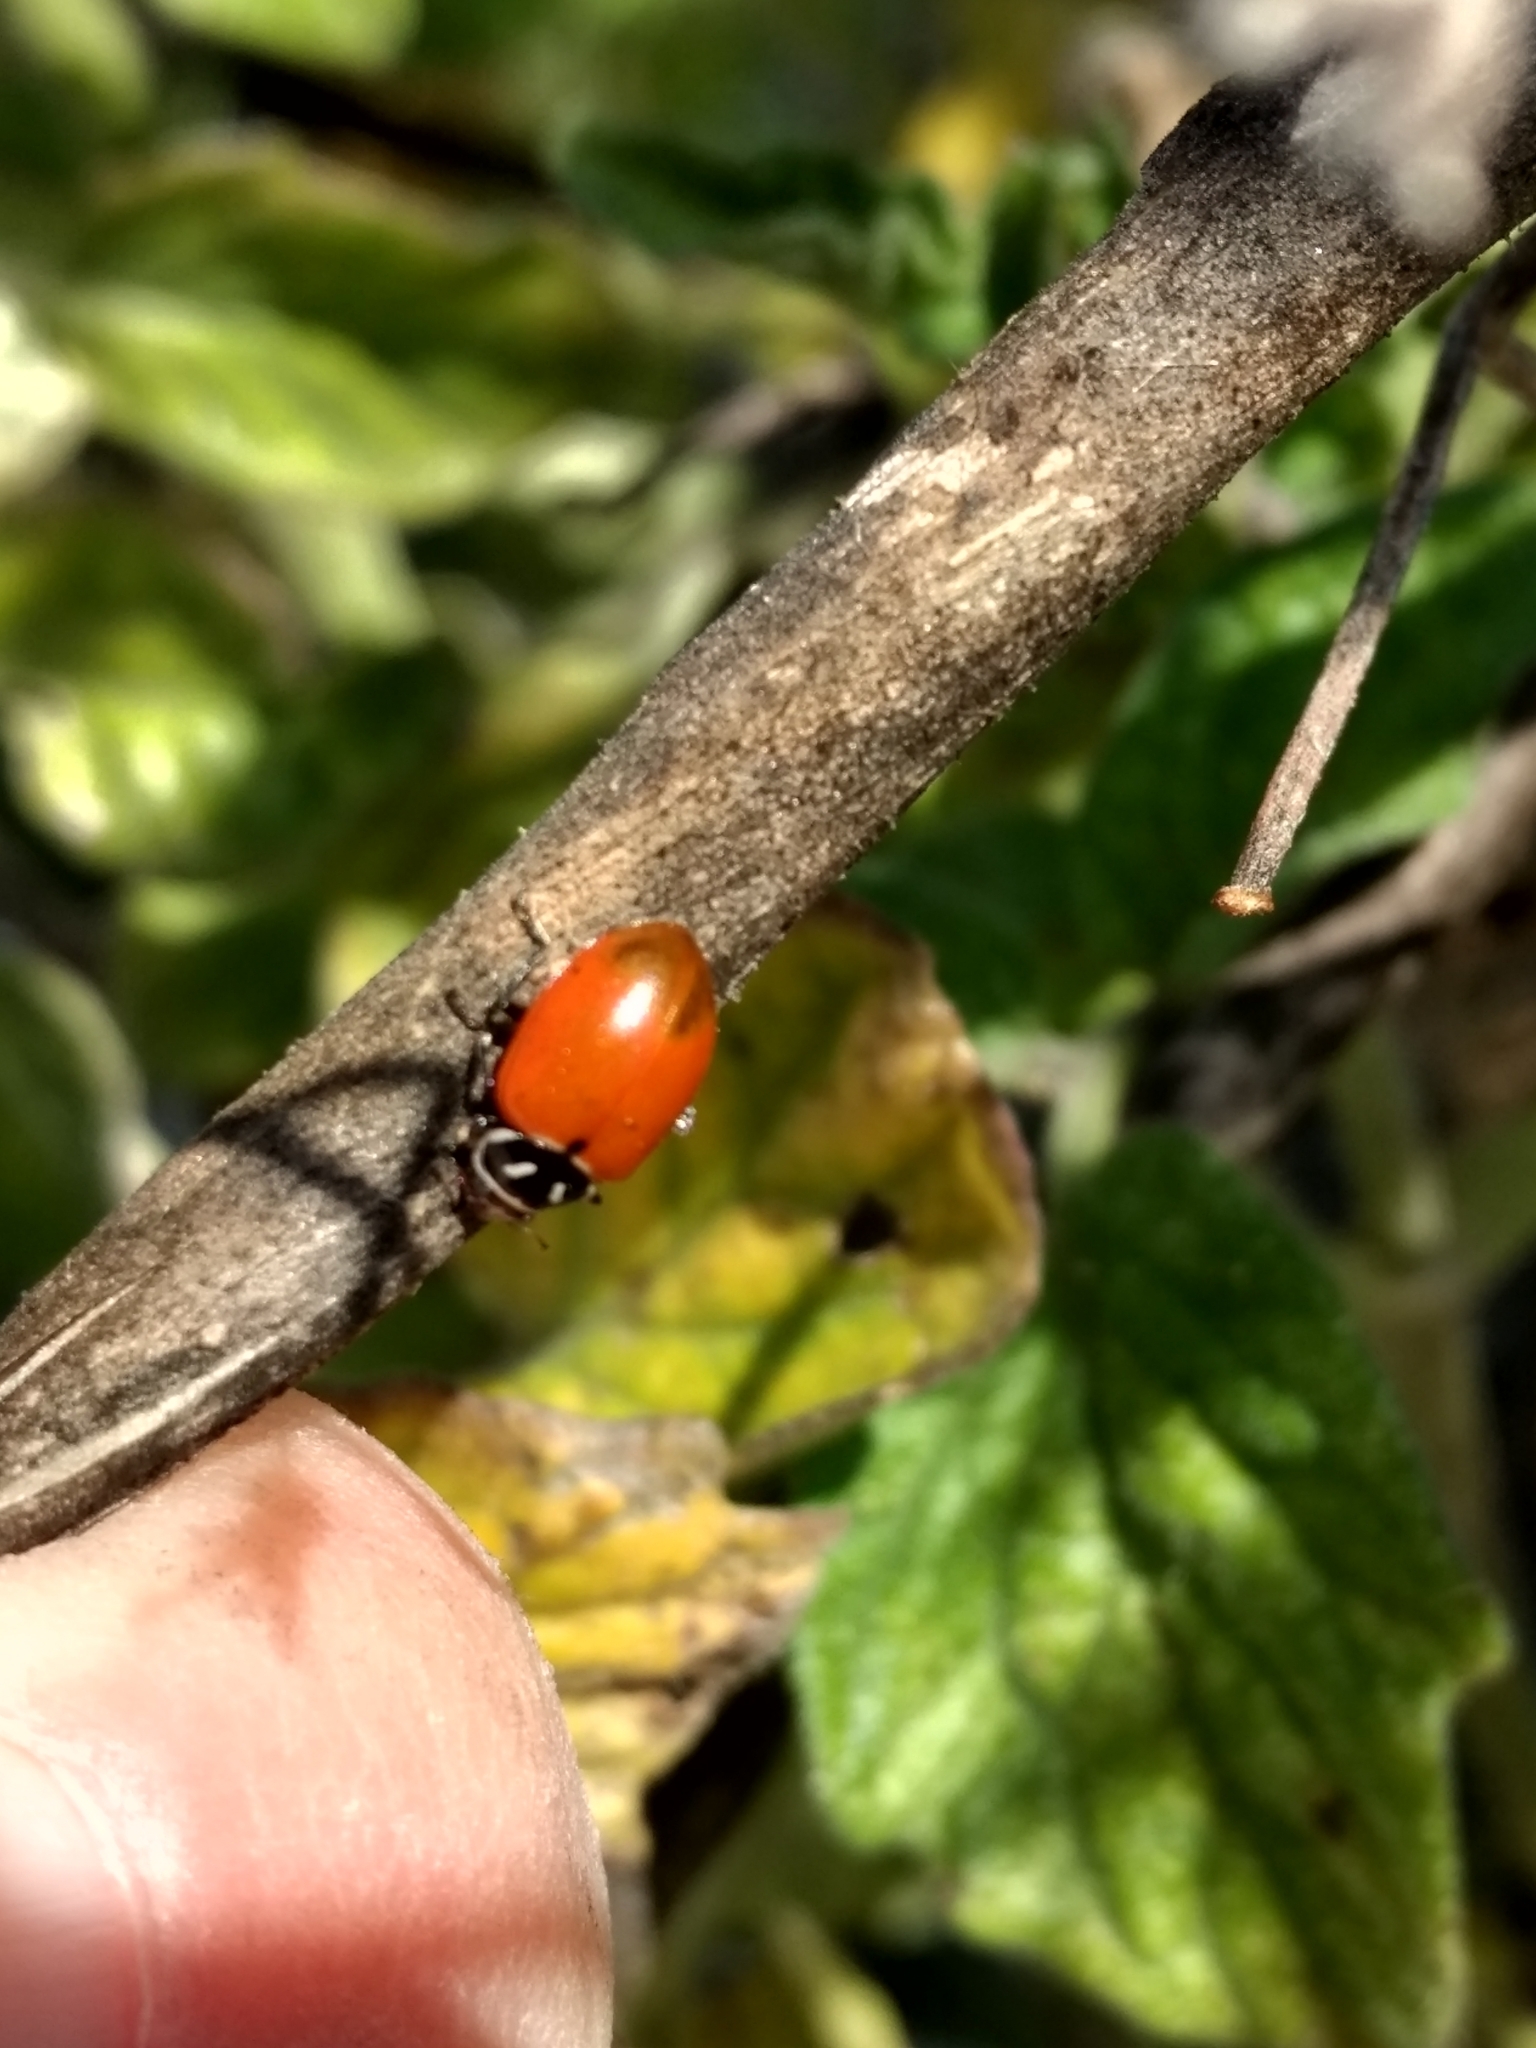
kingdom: Animalia
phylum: Arthropoda
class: Insecta
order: Coleoptera
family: Coccinellidae
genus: Hippodamia
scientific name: Hippodamia convergens
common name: Convergent lady beetle
